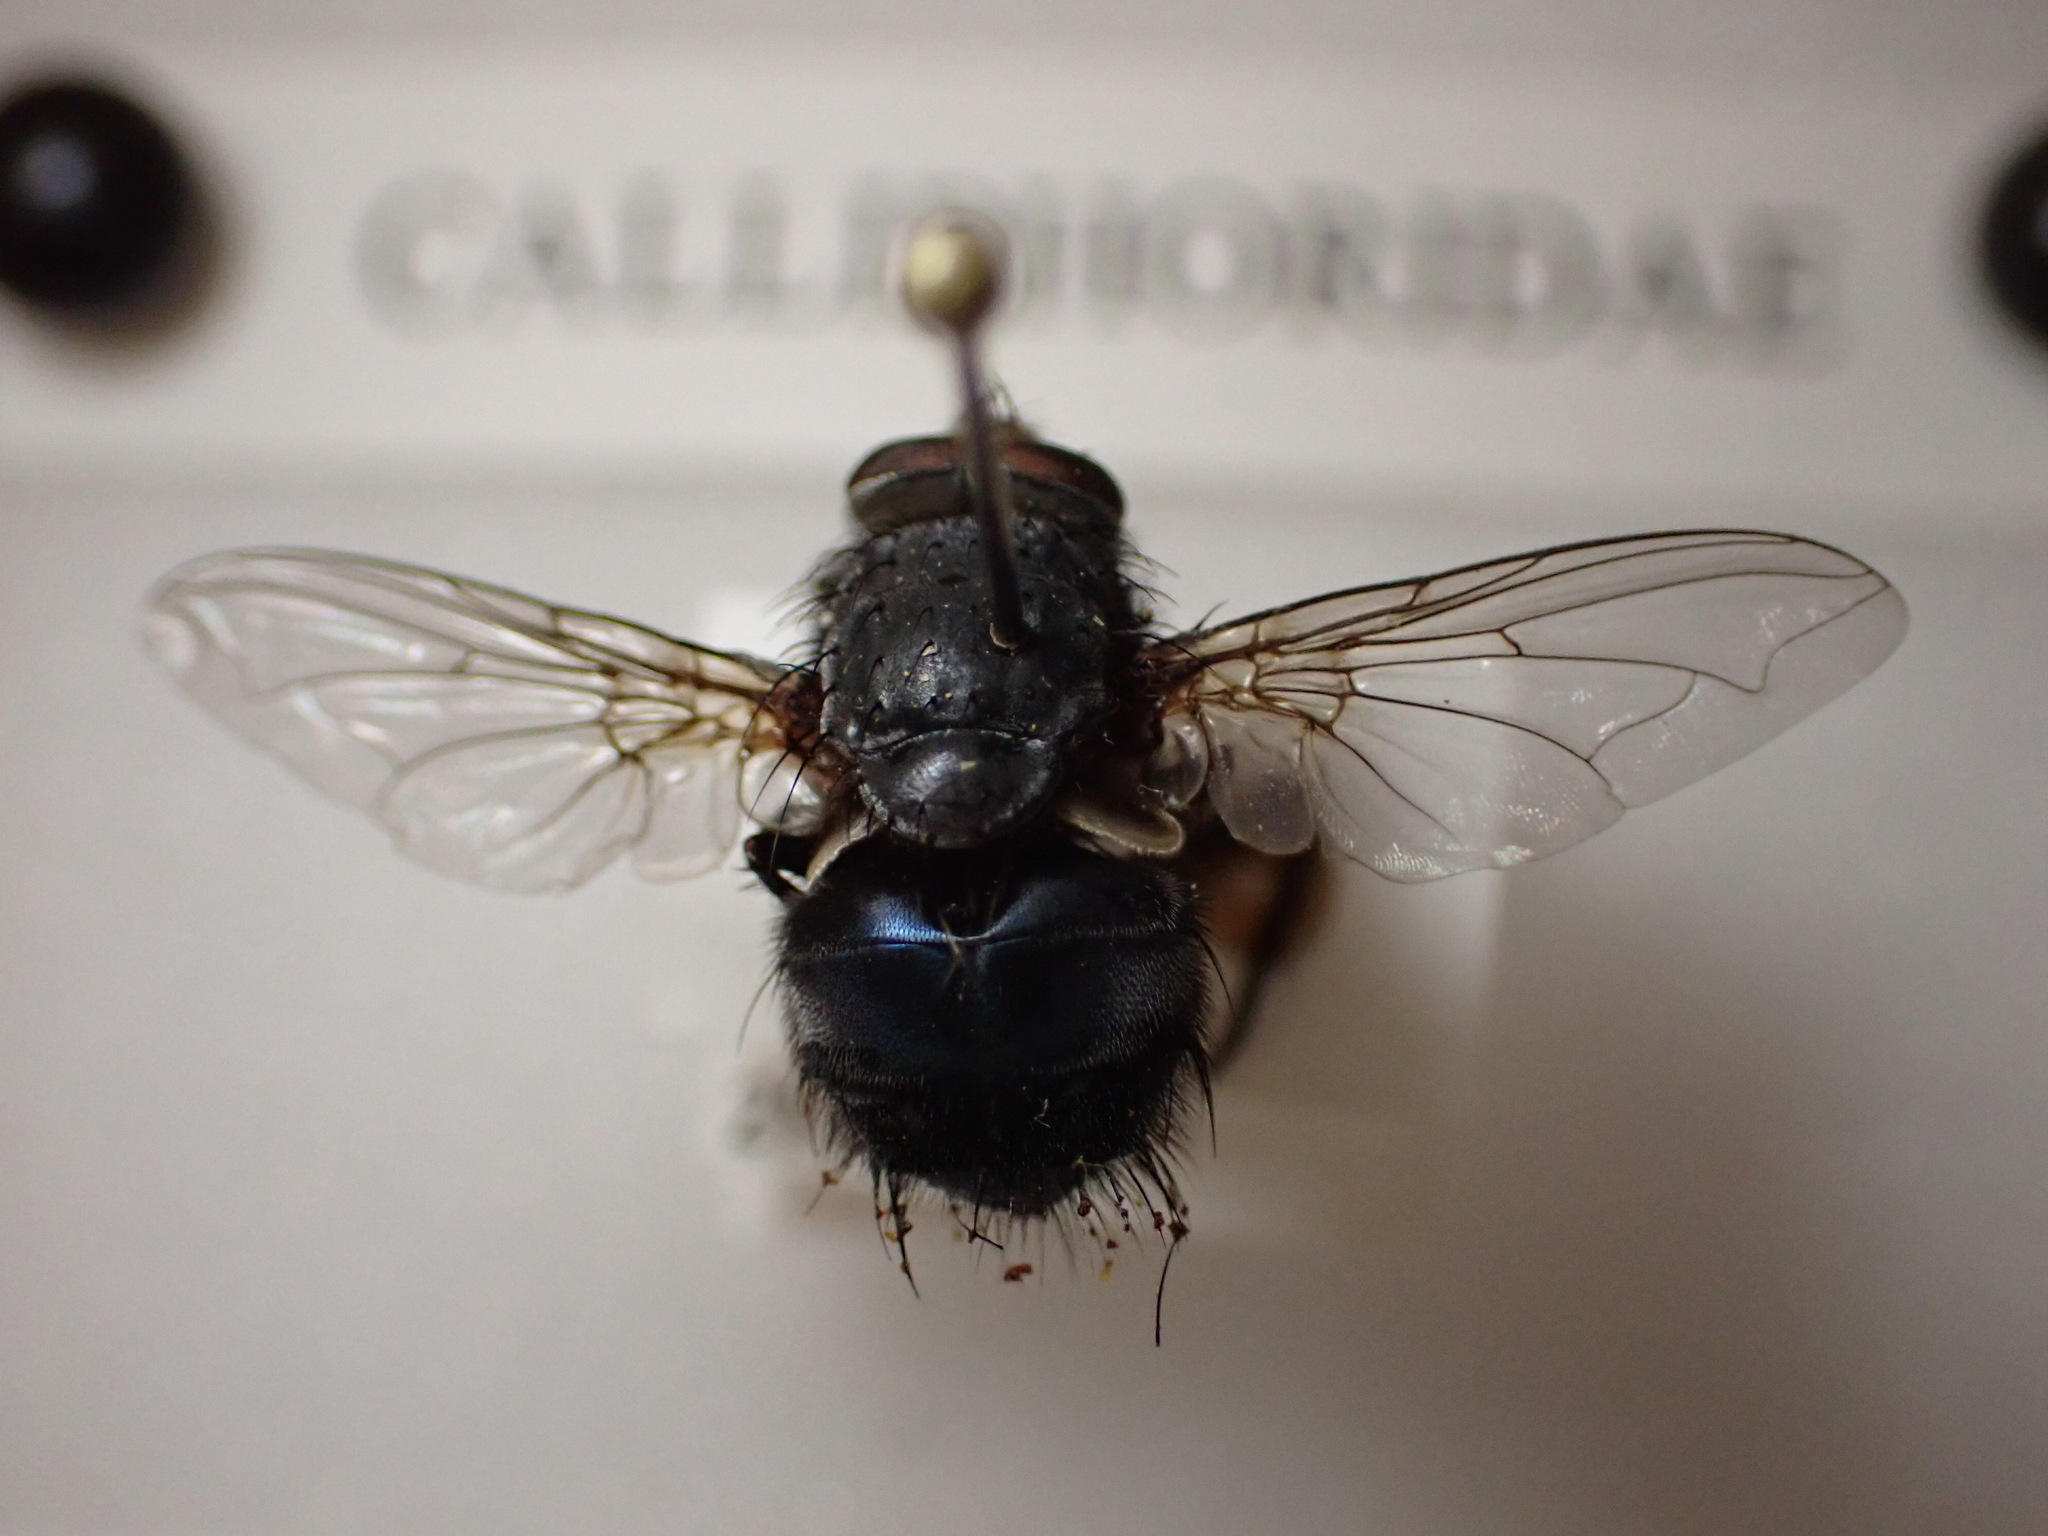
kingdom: Animalia
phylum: Arthropoda
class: Insecta
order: Diptera
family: Calliphoridae
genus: Calliphora
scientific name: Calliphora vicina
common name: Common blow flie
